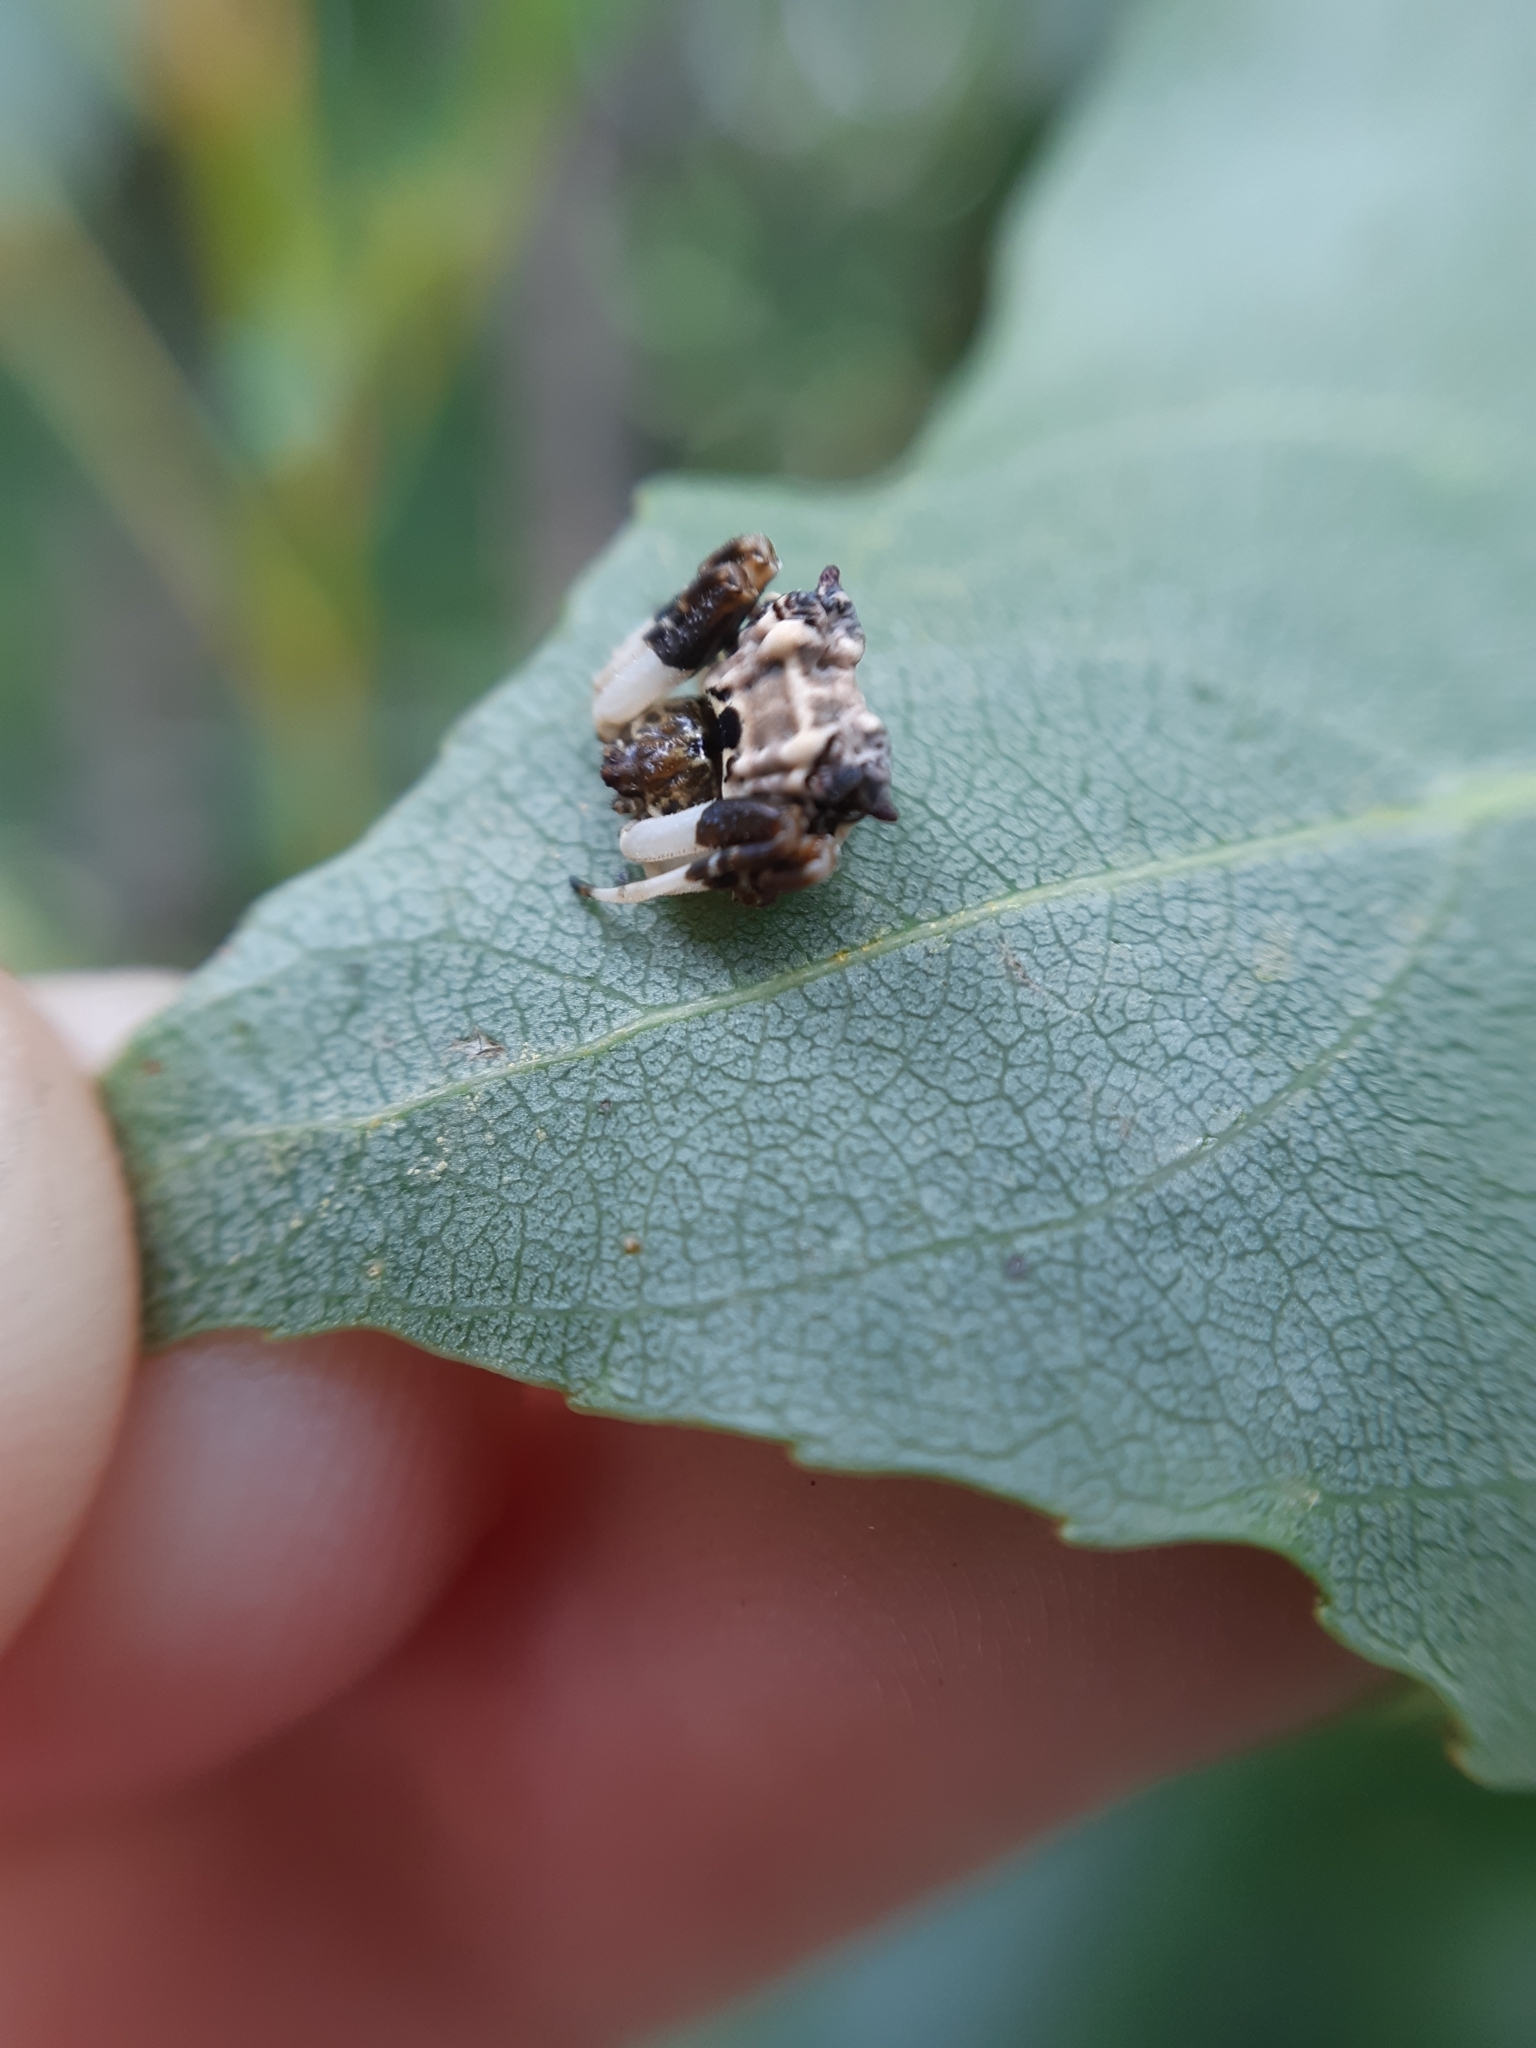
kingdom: Animalia
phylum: Arthropoda
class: Arachnida
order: Araneae
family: Araneidae
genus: Celaenia
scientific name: Celaenia excavata
